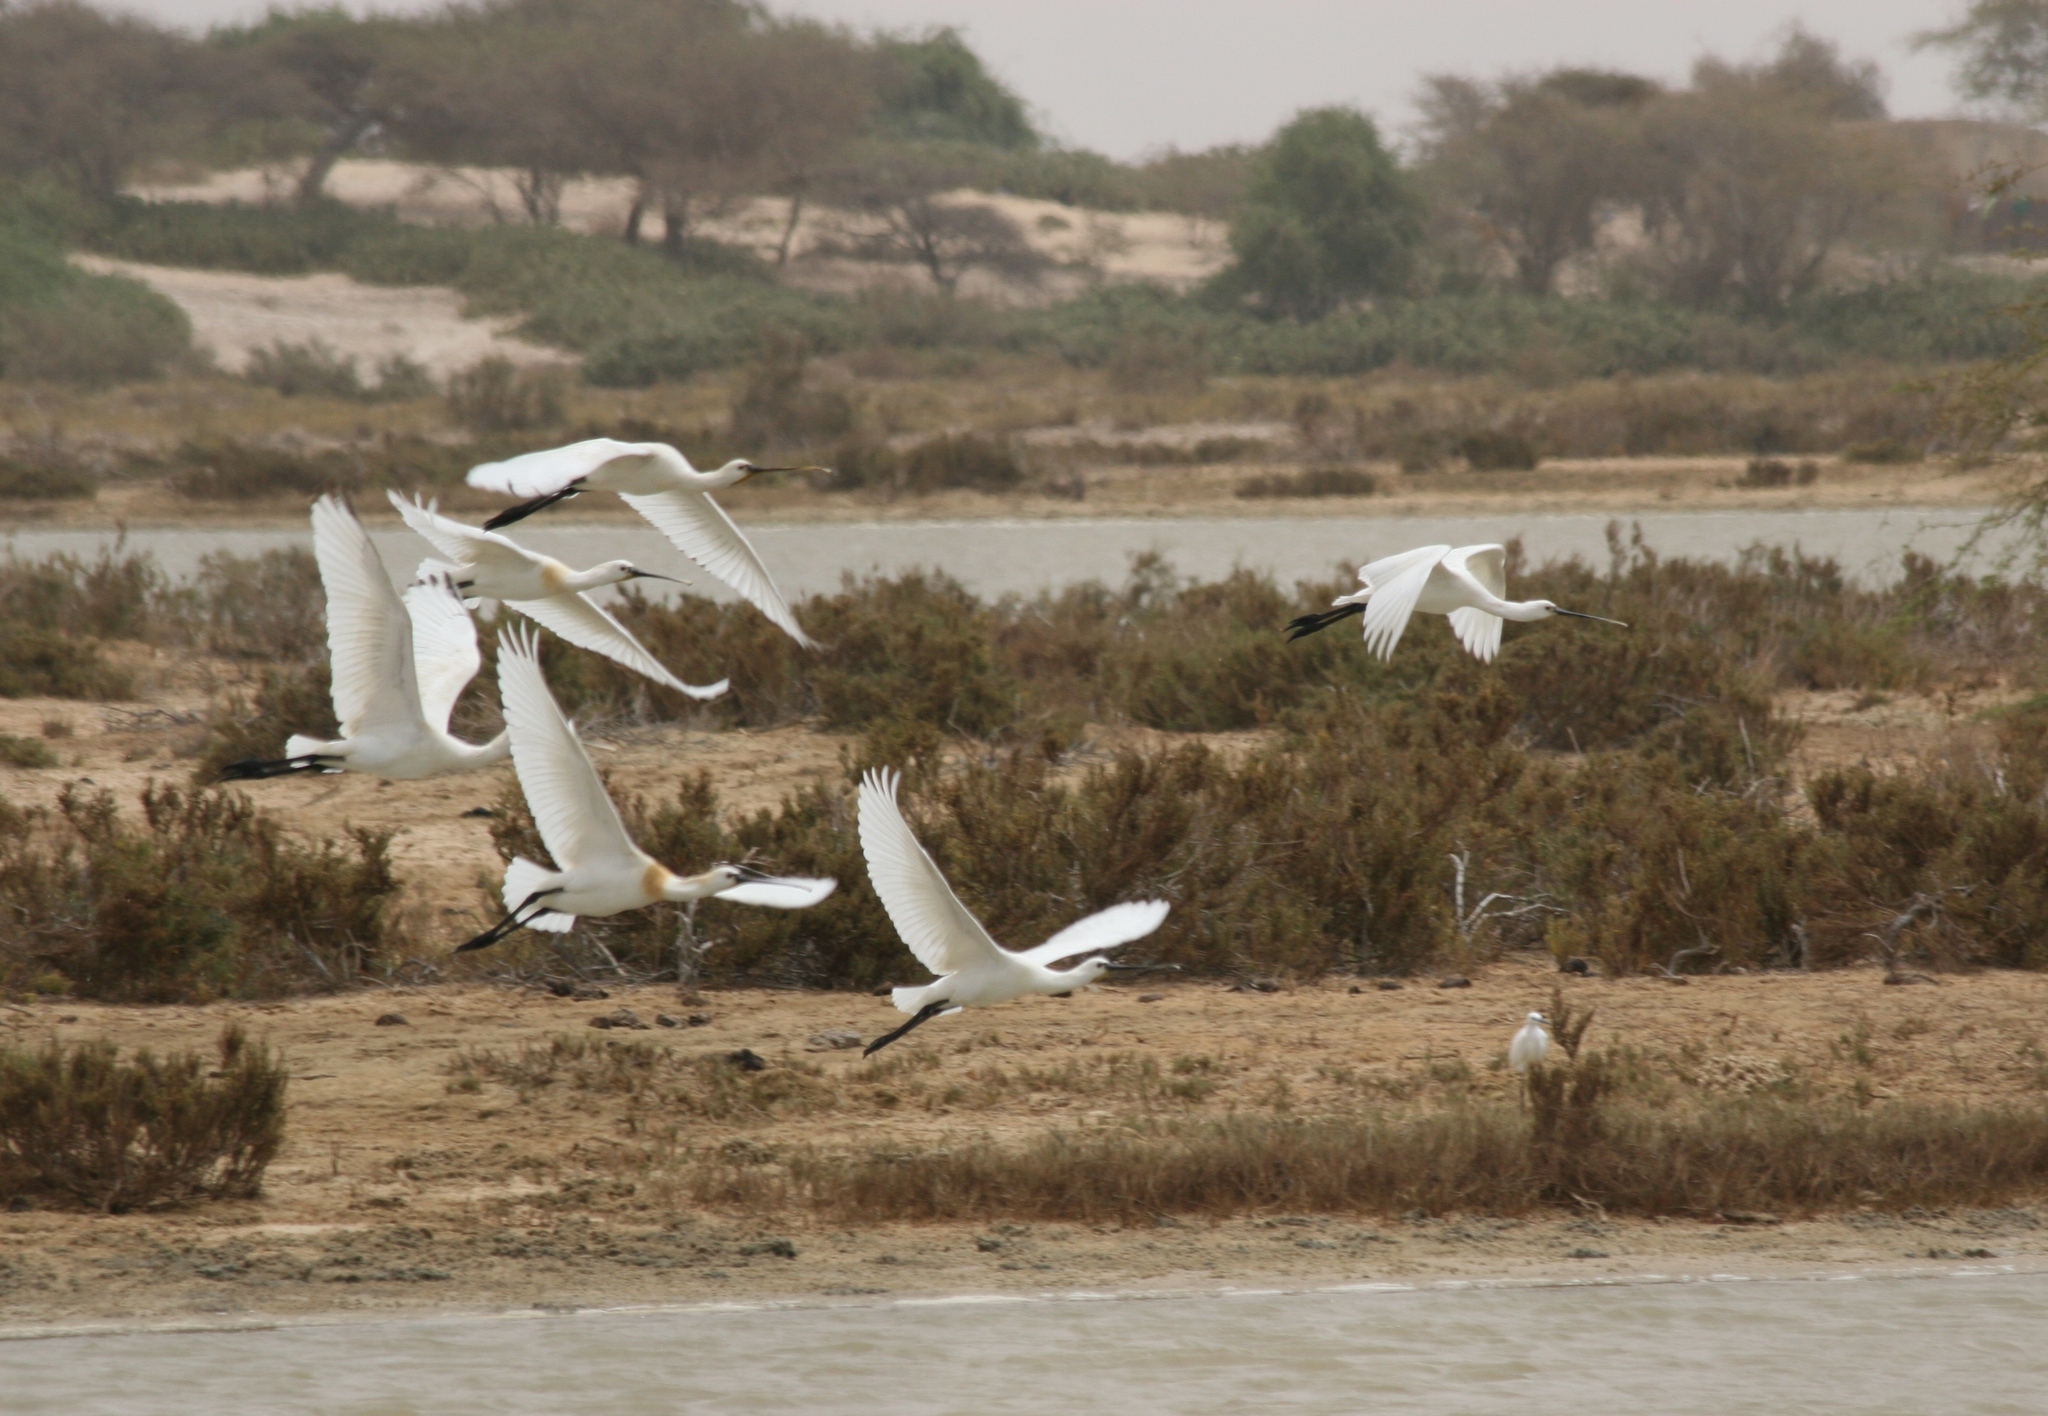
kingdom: Animalia
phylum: Chordata
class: Aves
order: Pelecaniformes
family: Threskiornithidae
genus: Platalea
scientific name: Platalea leucorodia
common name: Eurasian spoonbill
